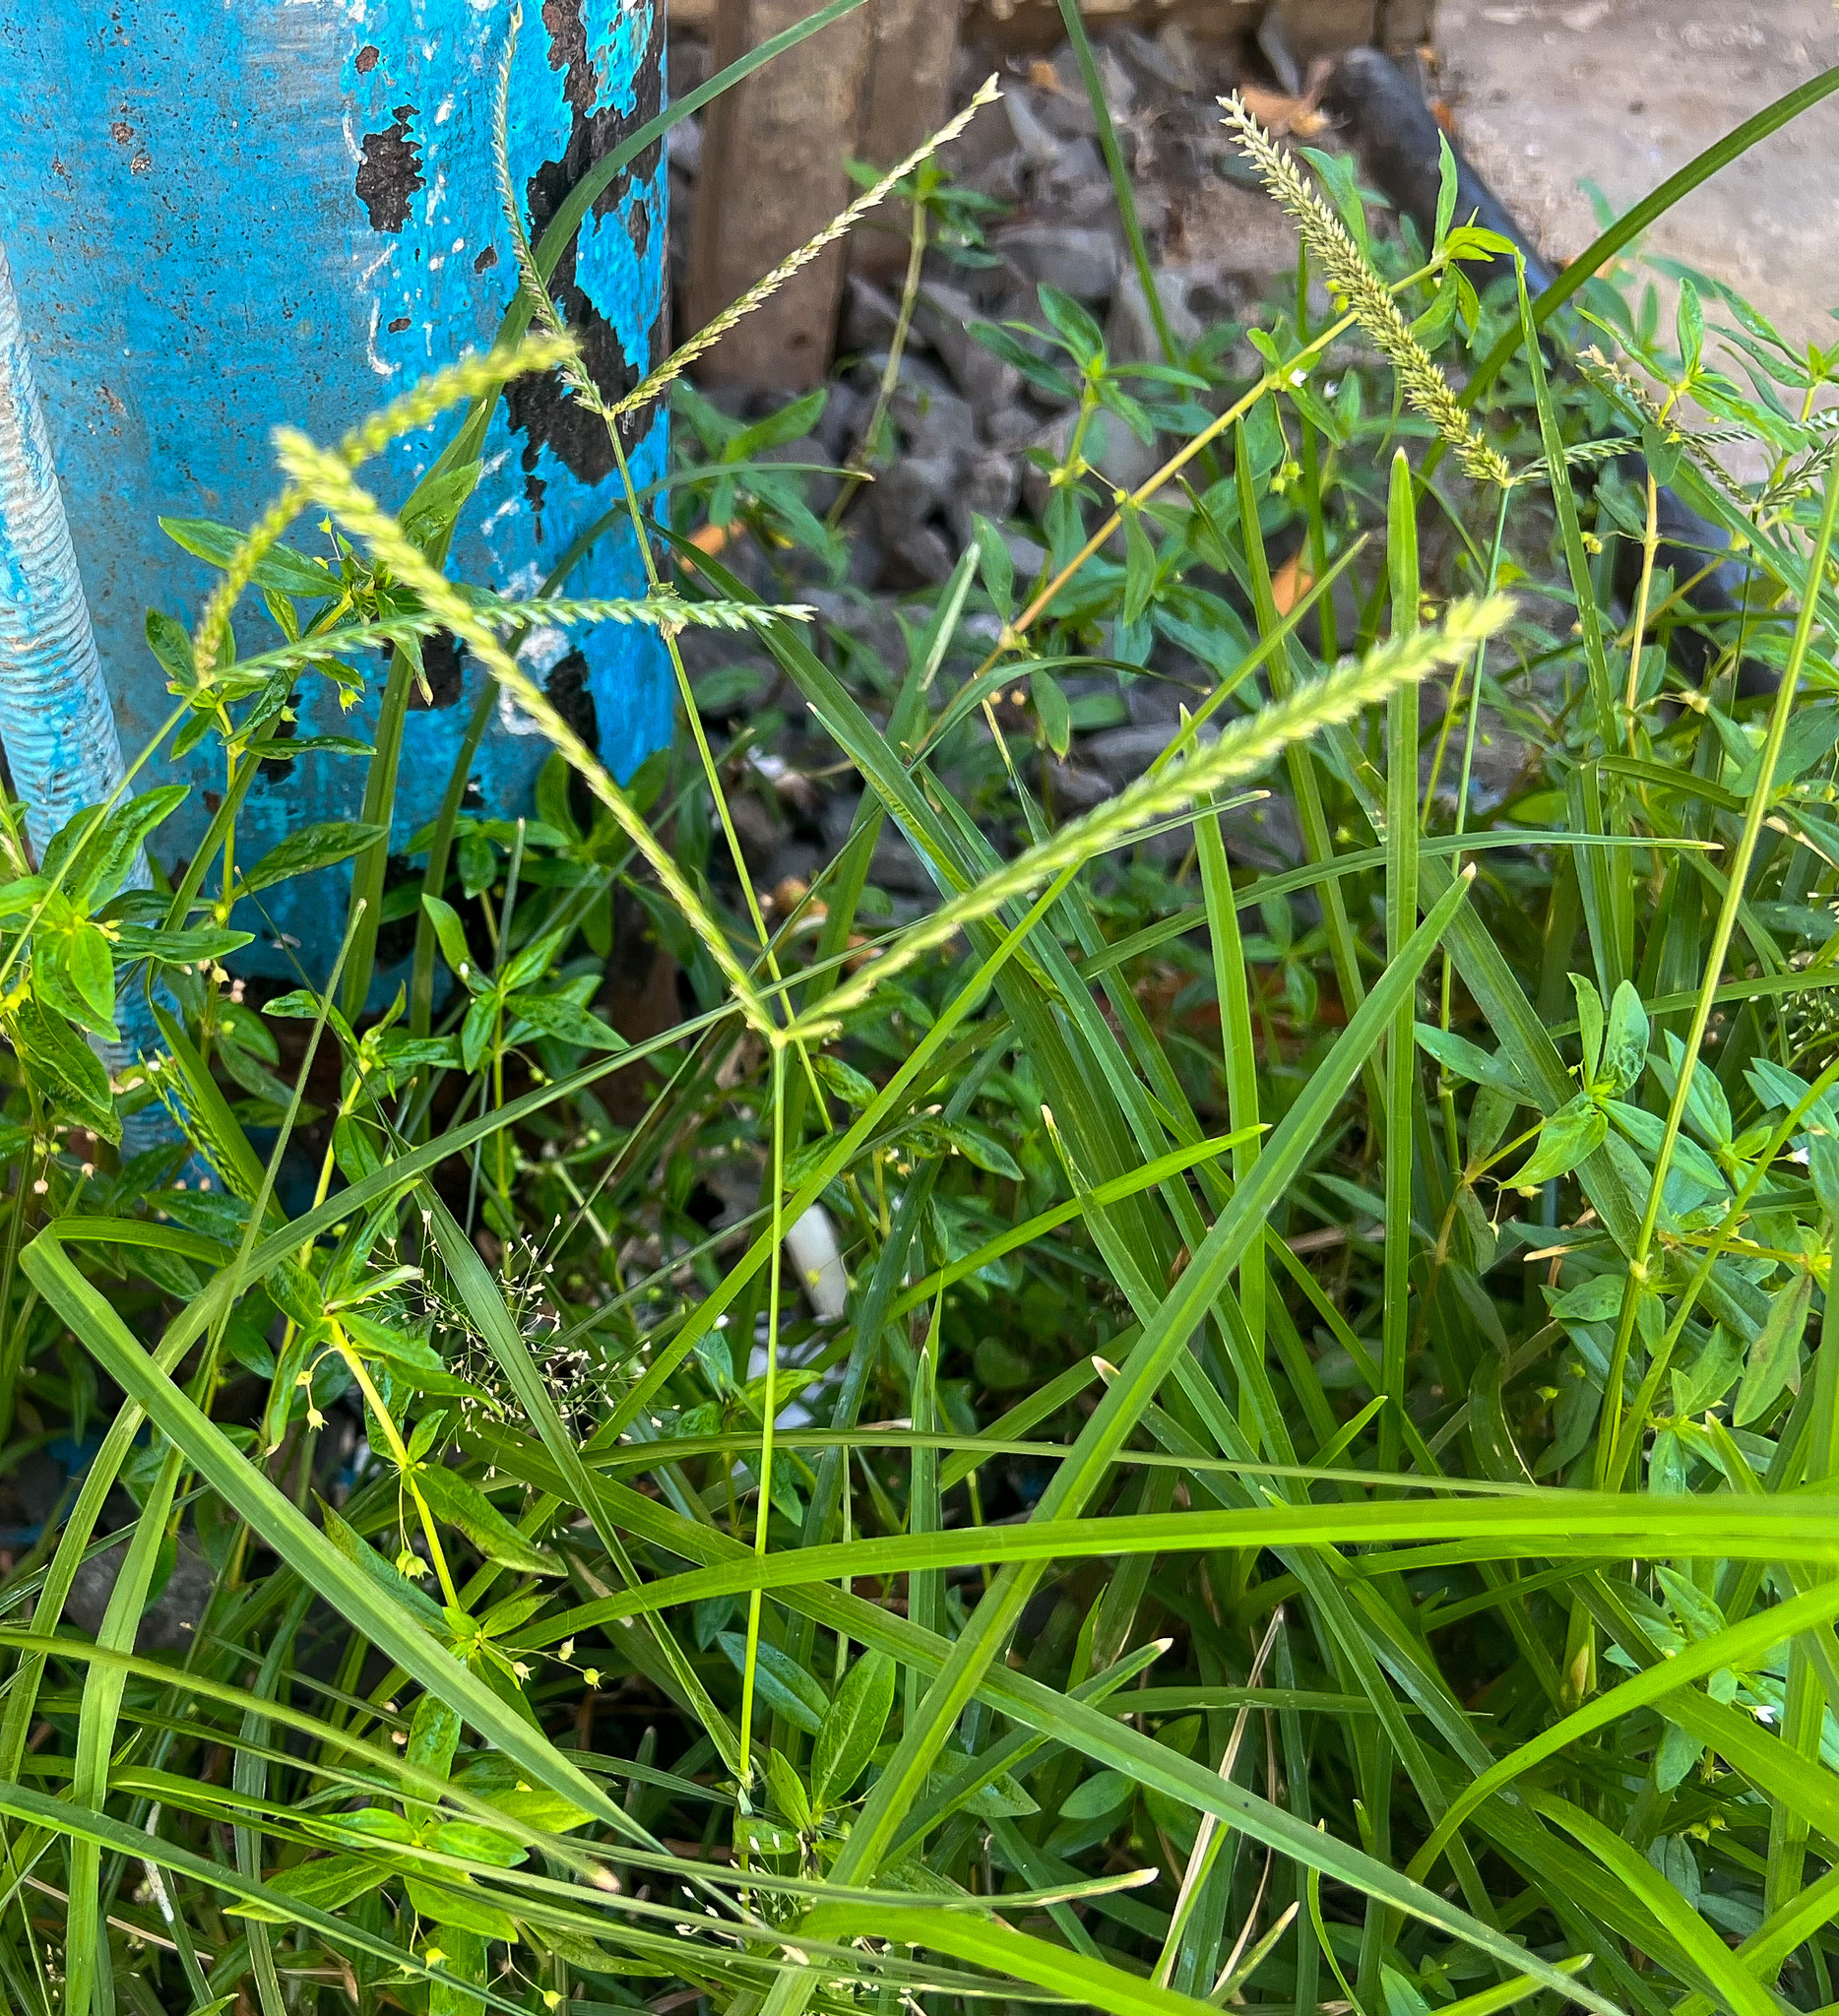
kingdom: Plantae
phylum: Tracheophyta
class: Liliopsida
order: Poales
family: Poaceae
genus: Eleusine
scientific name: Eleusine indica
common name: Yard-grass
